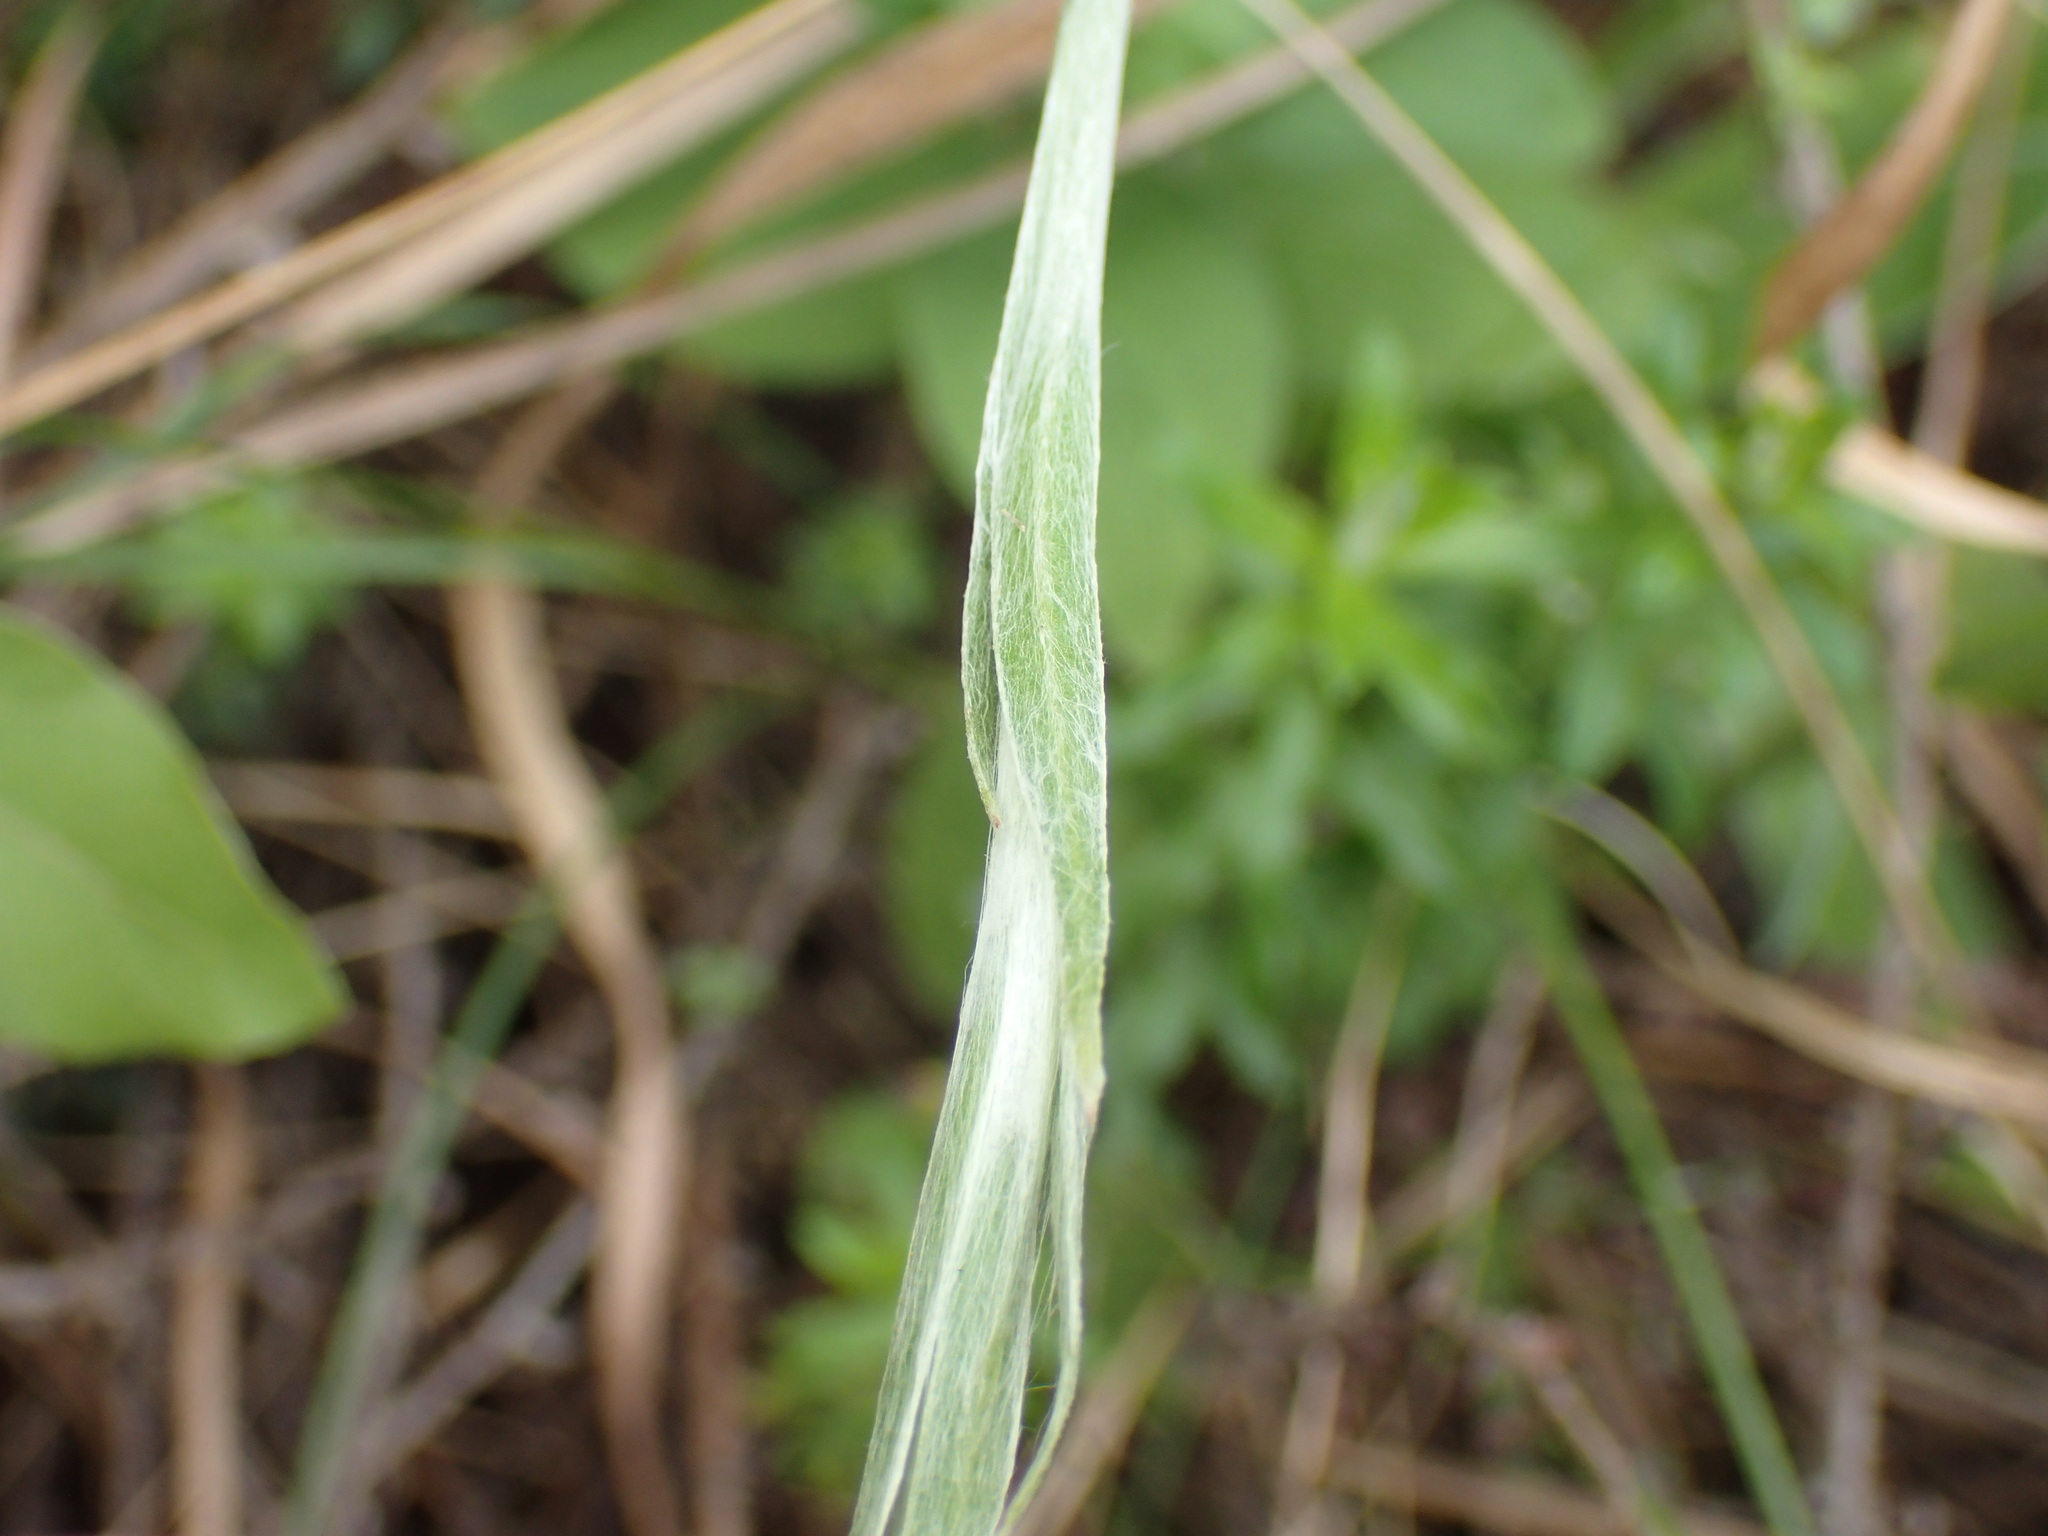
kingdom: Plantae
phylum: Tracheophyta
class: Magnoliopsida
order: Asterales
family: Asteraceae
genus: Helichrysum
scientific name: Helichrysum longifolium
